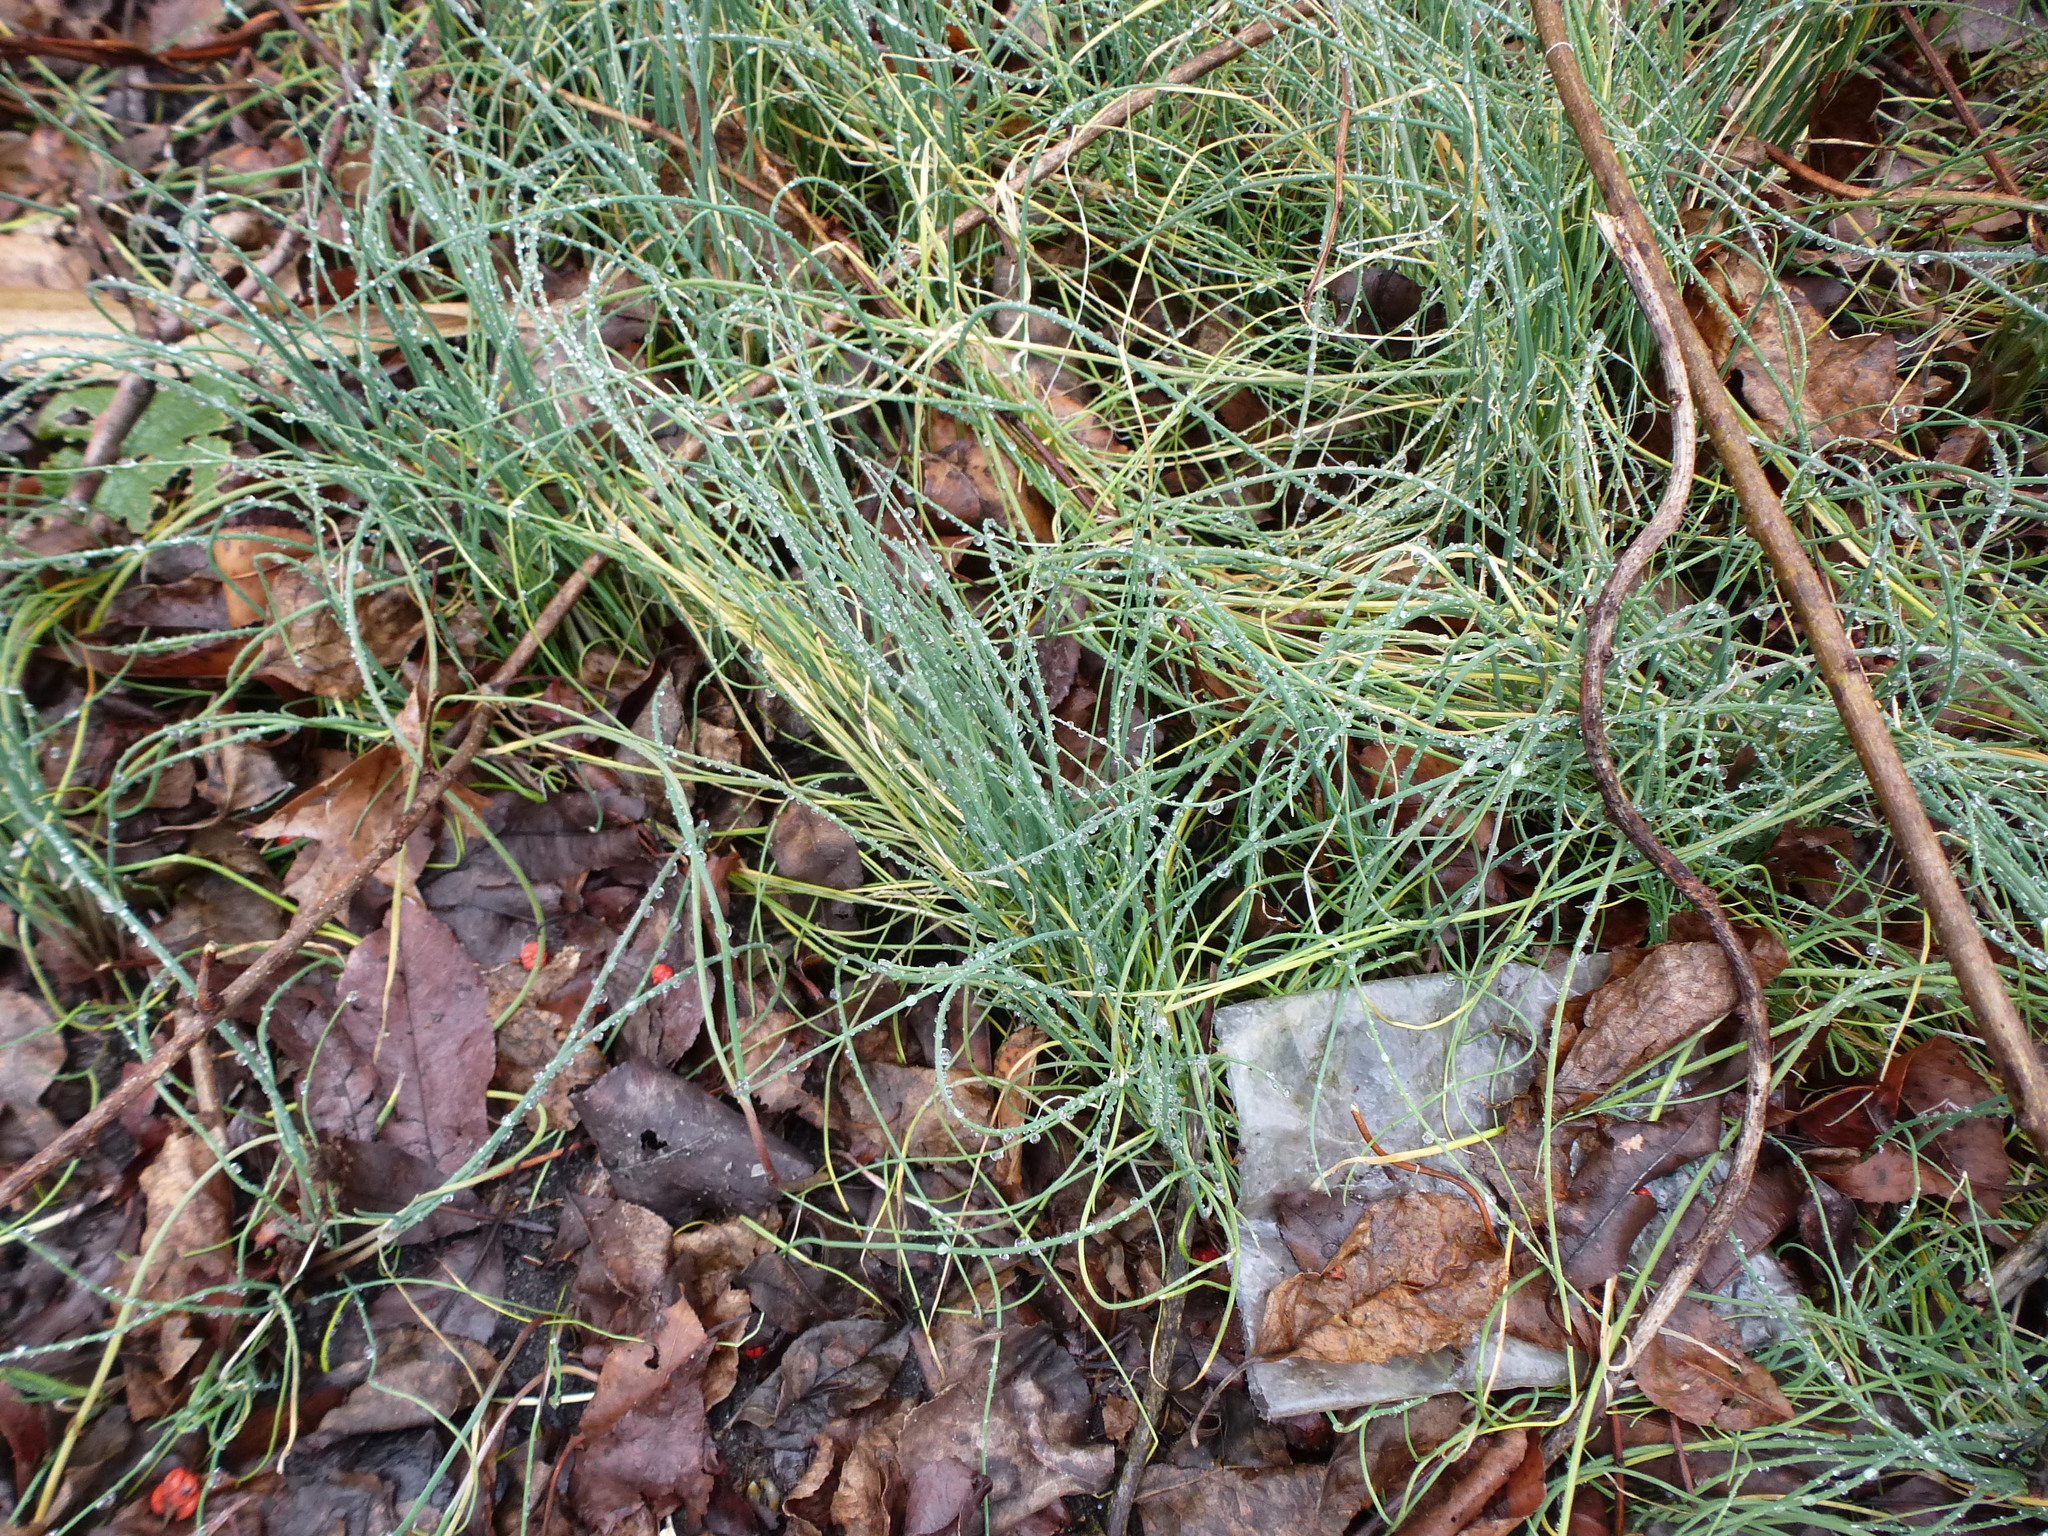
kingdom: Plantae
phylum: Tracheophyta
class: Liliopsida
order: Asparagales
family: Amaryllidaceae
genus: Allium
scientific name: Allium vineale
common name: Crow garlic
